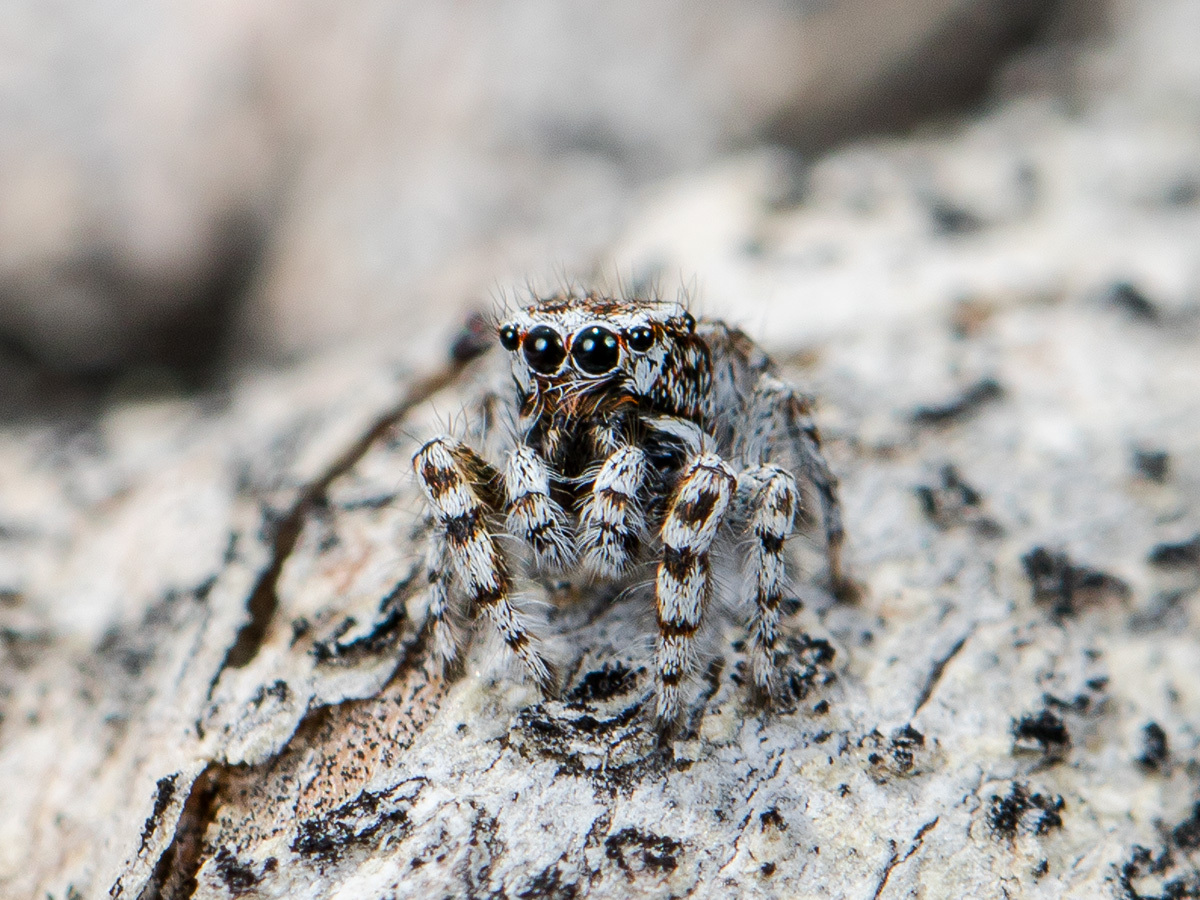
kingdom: Animalia
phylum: Arthropoda
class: Arachnida
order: Araneae
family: Salticidae
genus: Pseudomogrus
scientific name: Pseudomogrus albocinctus
